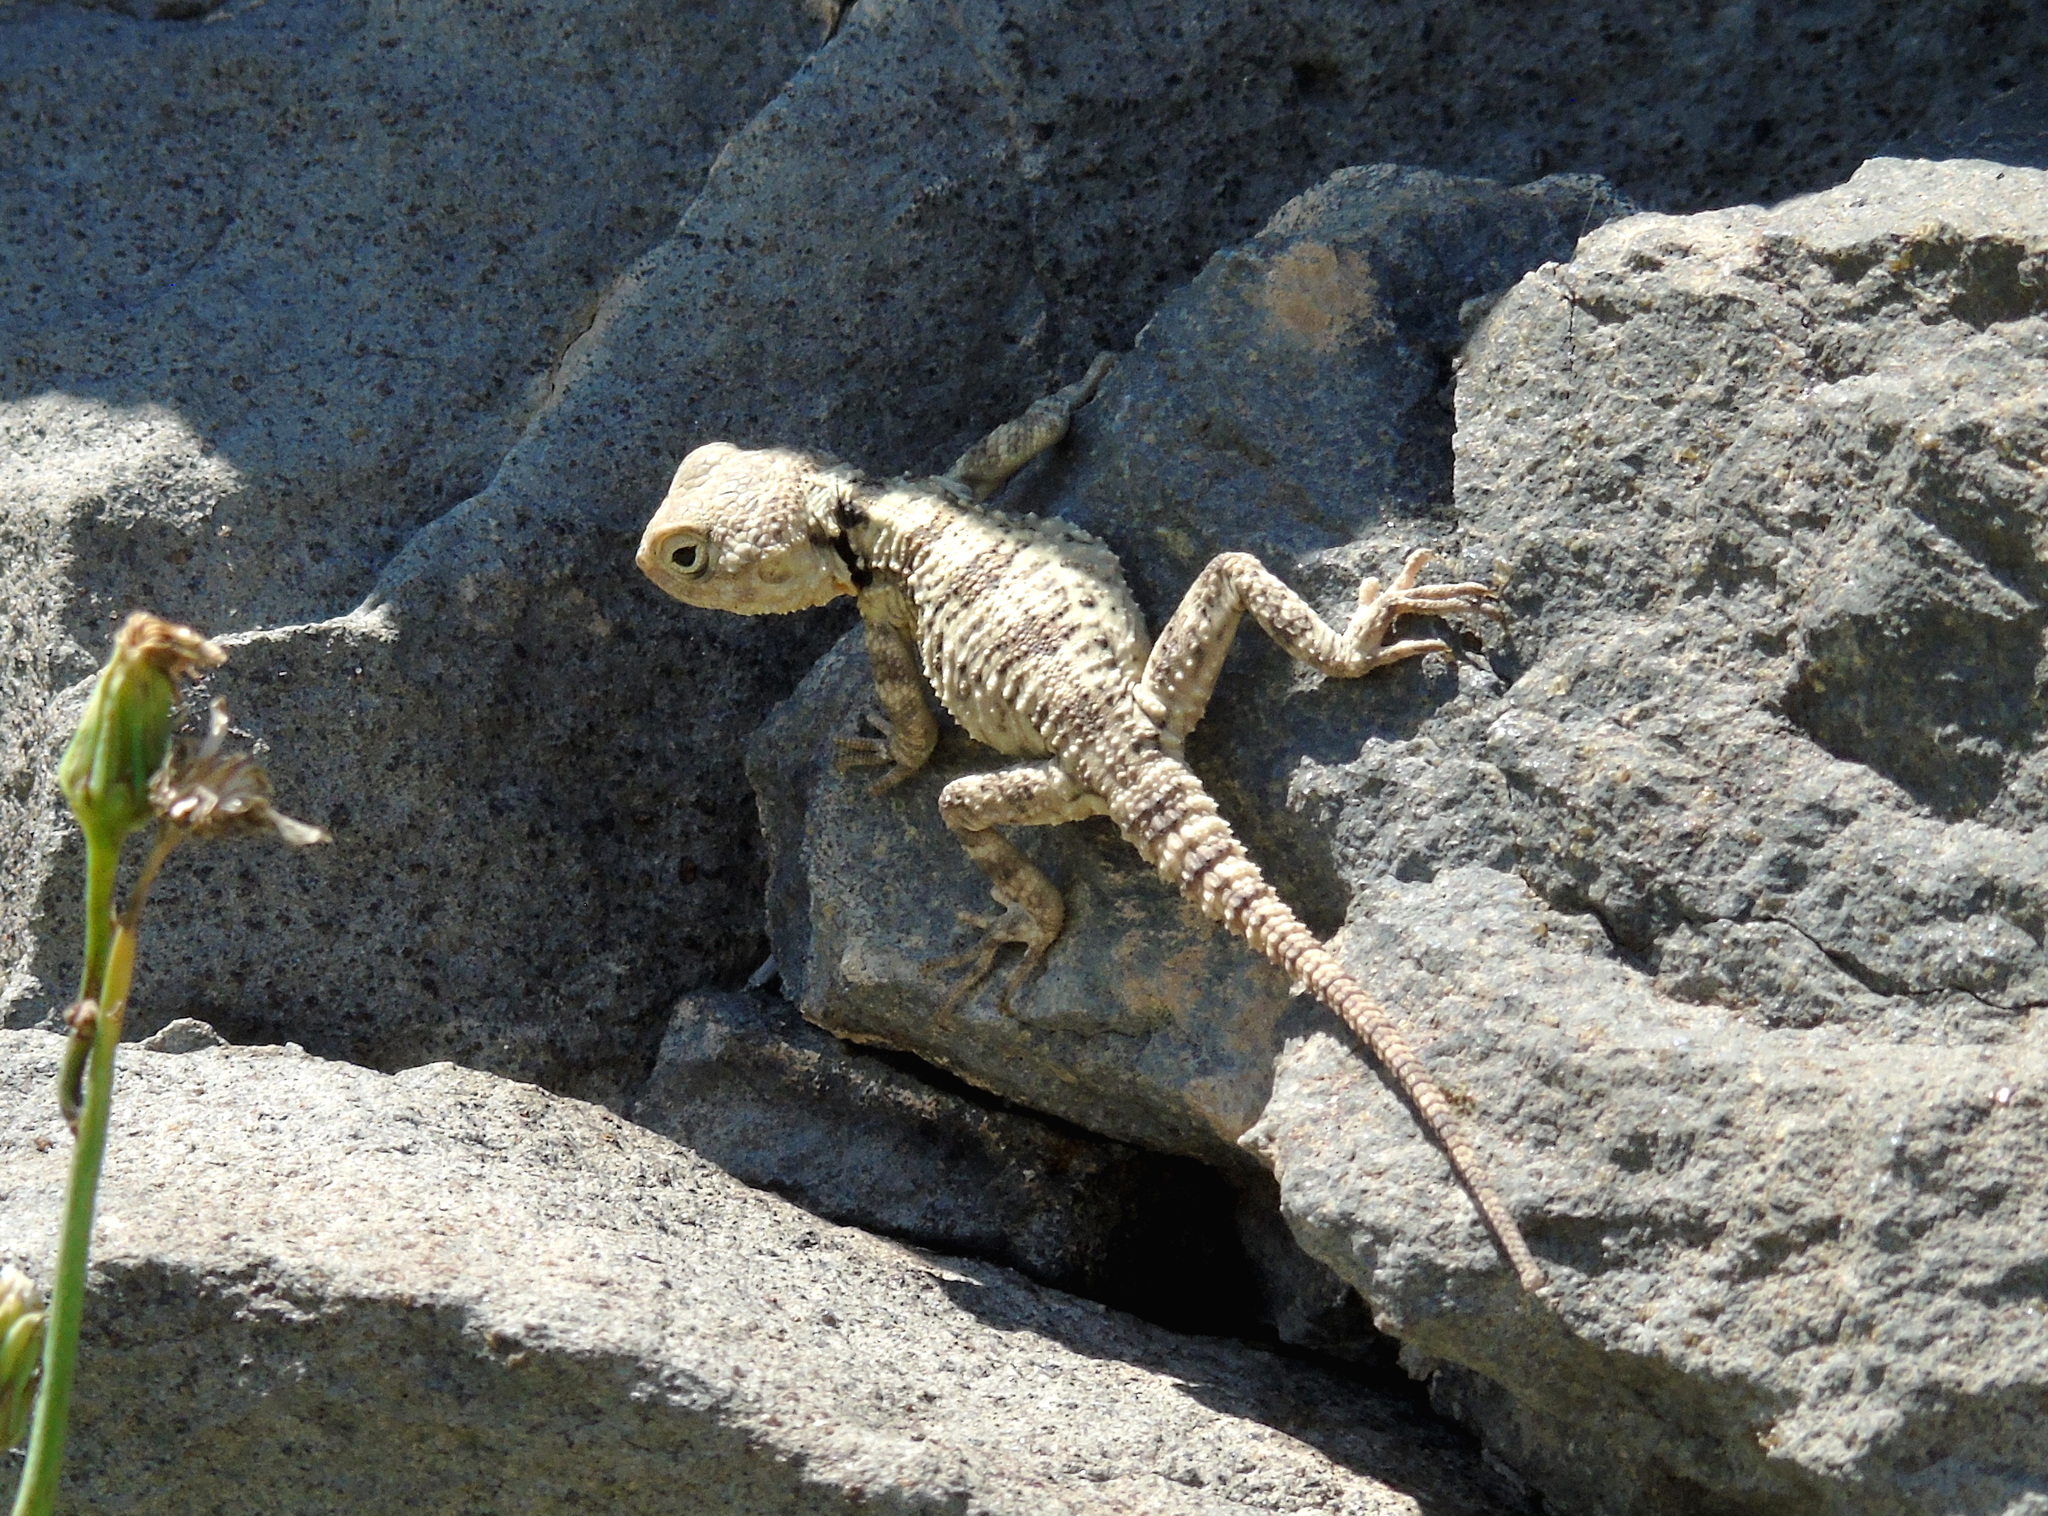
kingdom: Animalia
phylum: Chordata
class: Squamata
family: Agamidae
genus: Stellagama
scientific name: Stellagama stellio
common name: Starred agama
